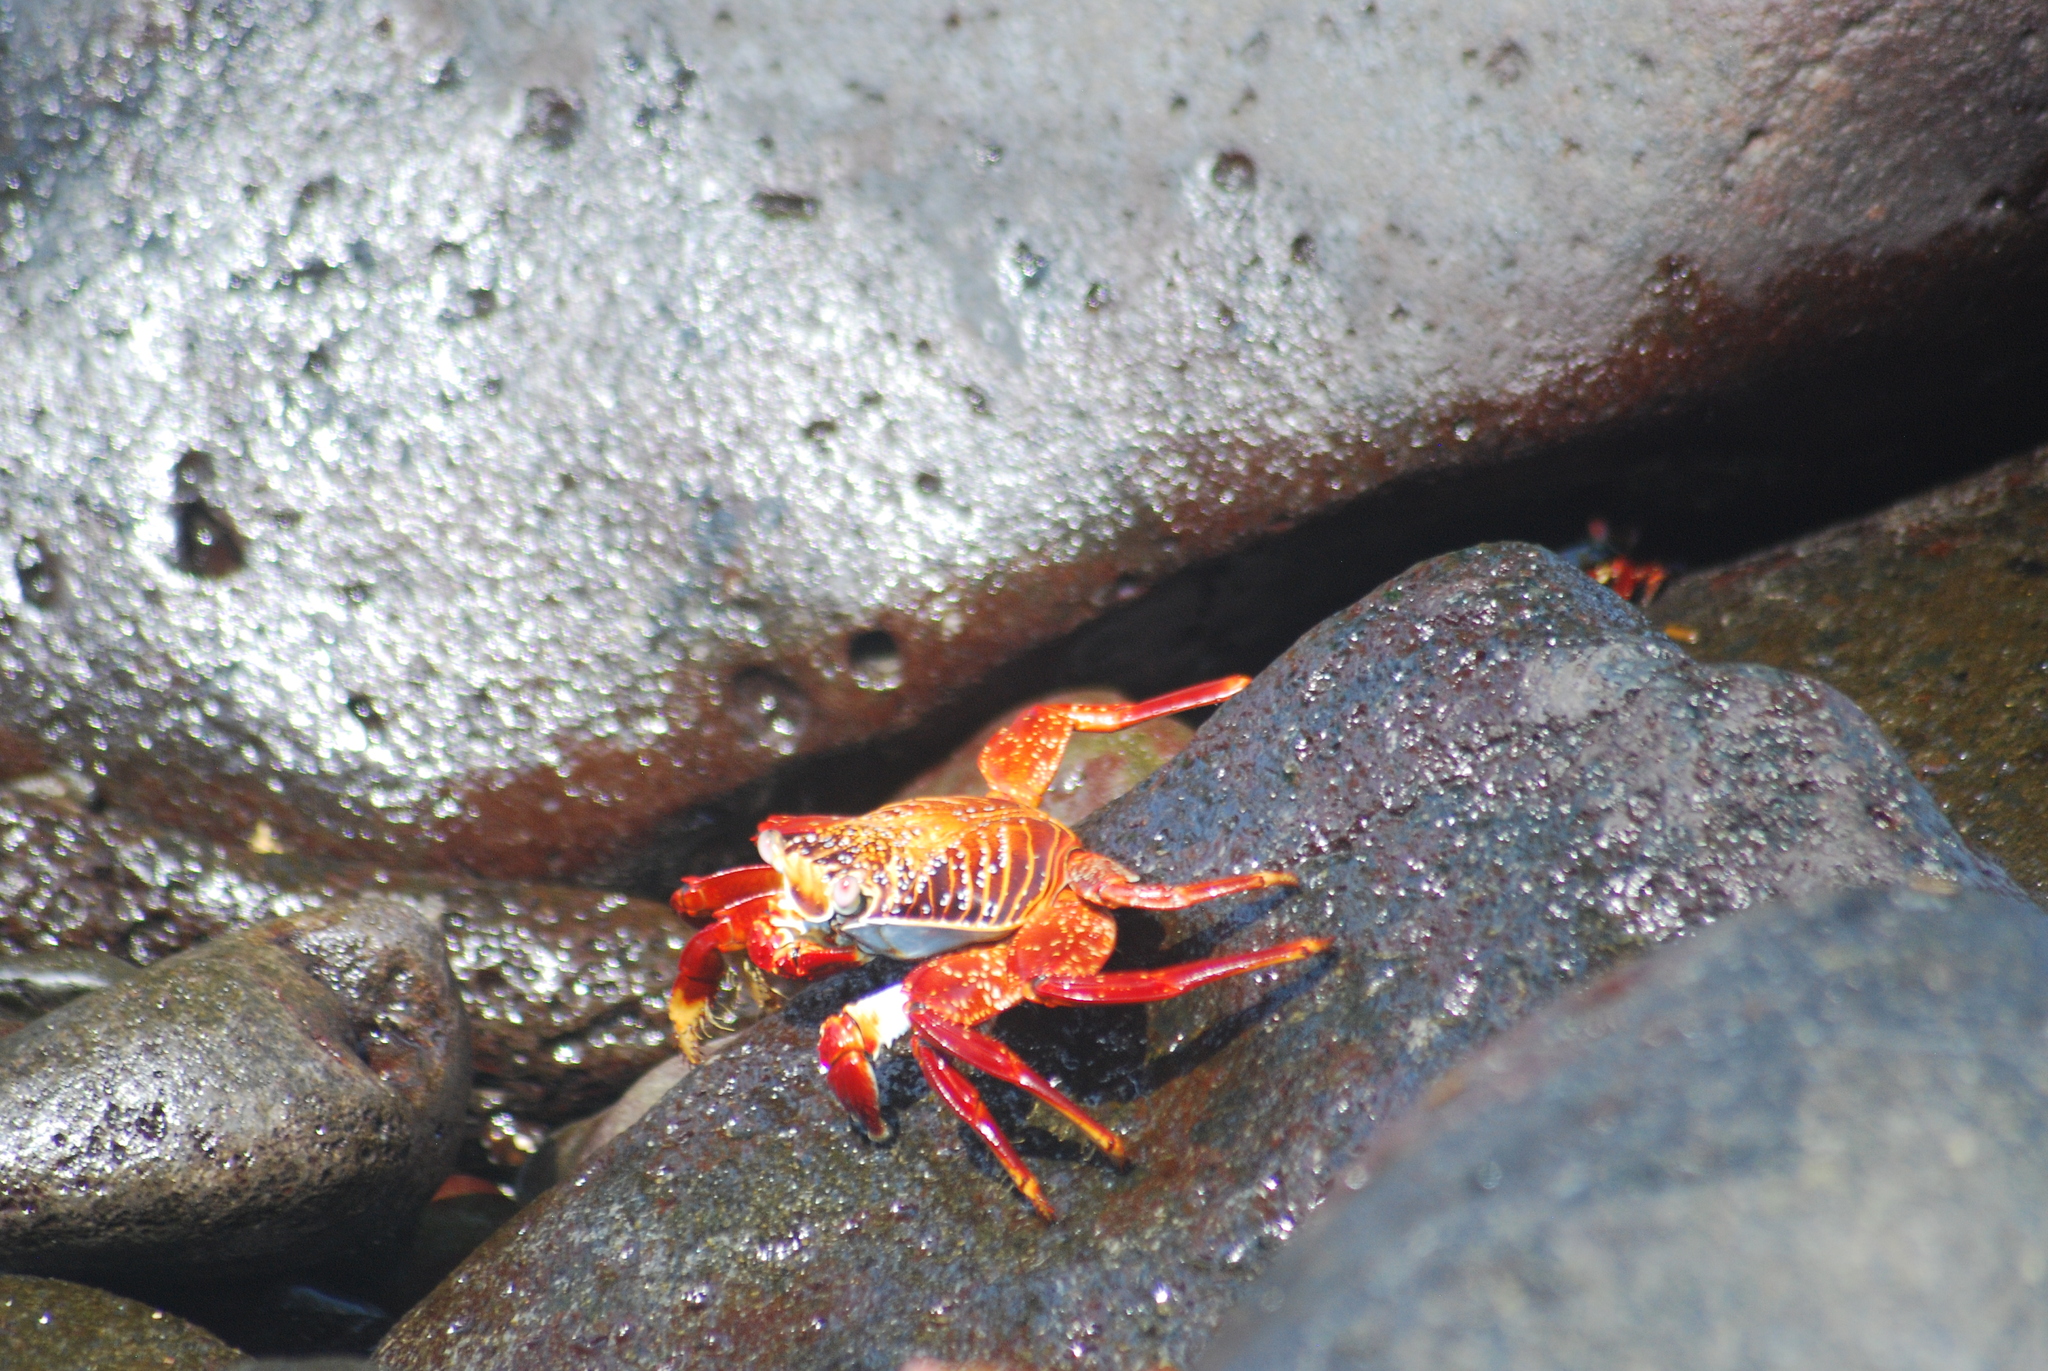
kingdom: Animalia
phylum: Arthropoda
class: Malacostraca
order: Decapoda
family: Grapsidae
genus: Grapsus
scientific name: Grapsus grapsus
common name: Sally lightfoot
